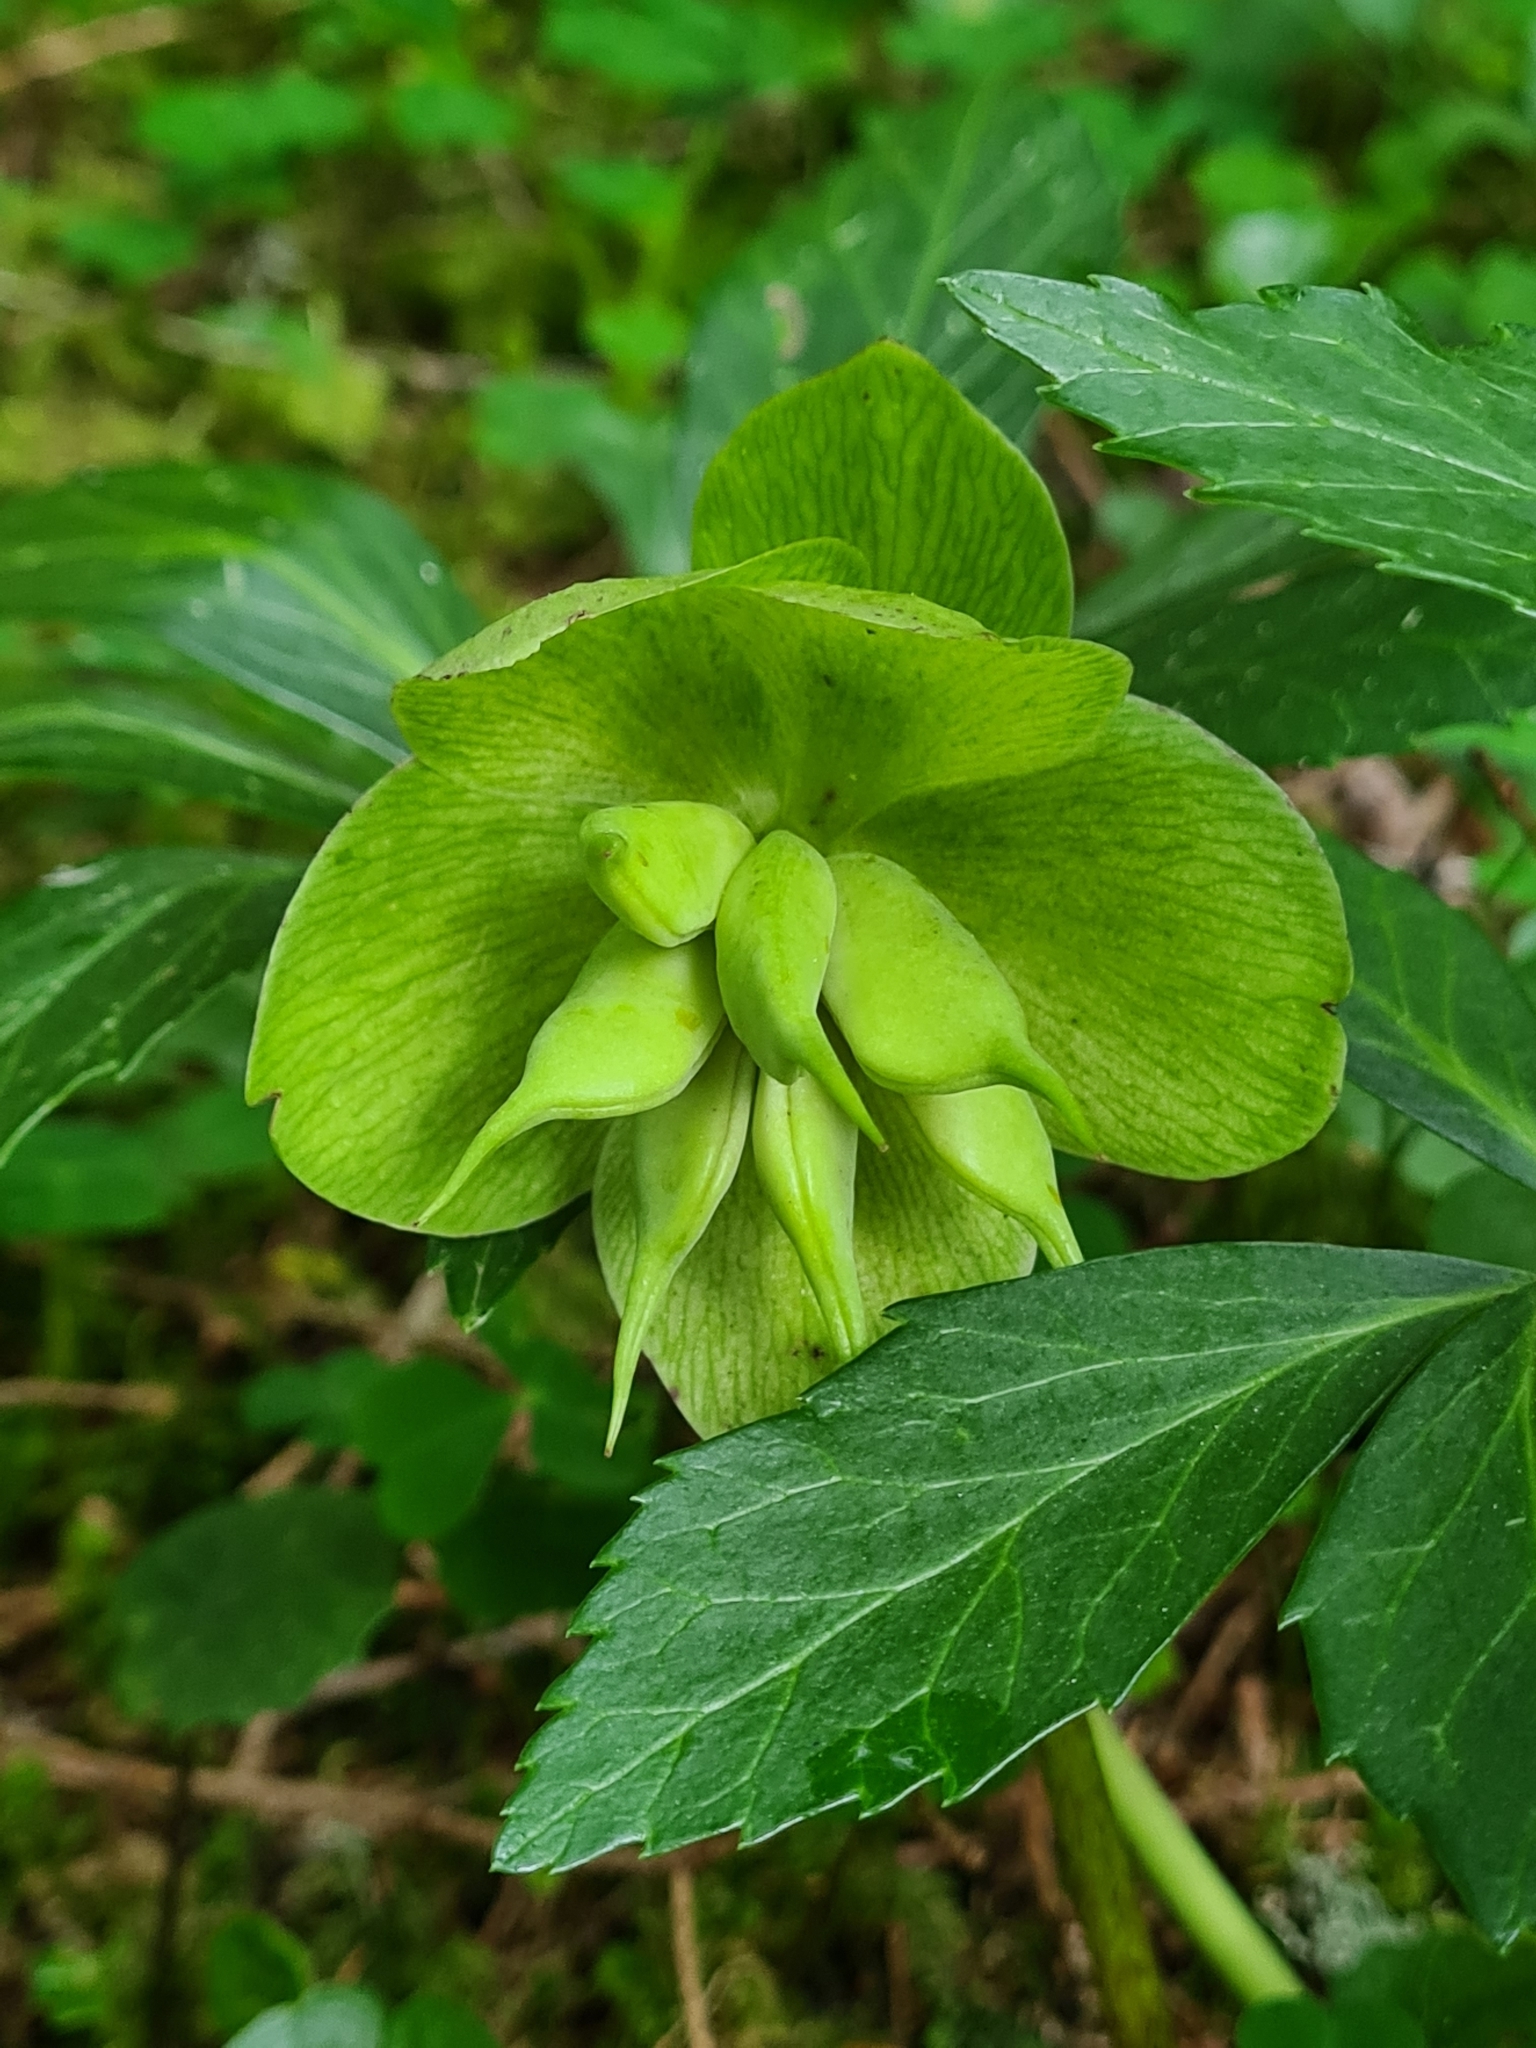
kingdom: Plantae
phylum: Tracheophyta
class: Magnoliopsida
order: Ranunculales
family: Ranunculaceae
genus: Helleborus
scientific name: Helleborus niger
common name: Black hellebore
